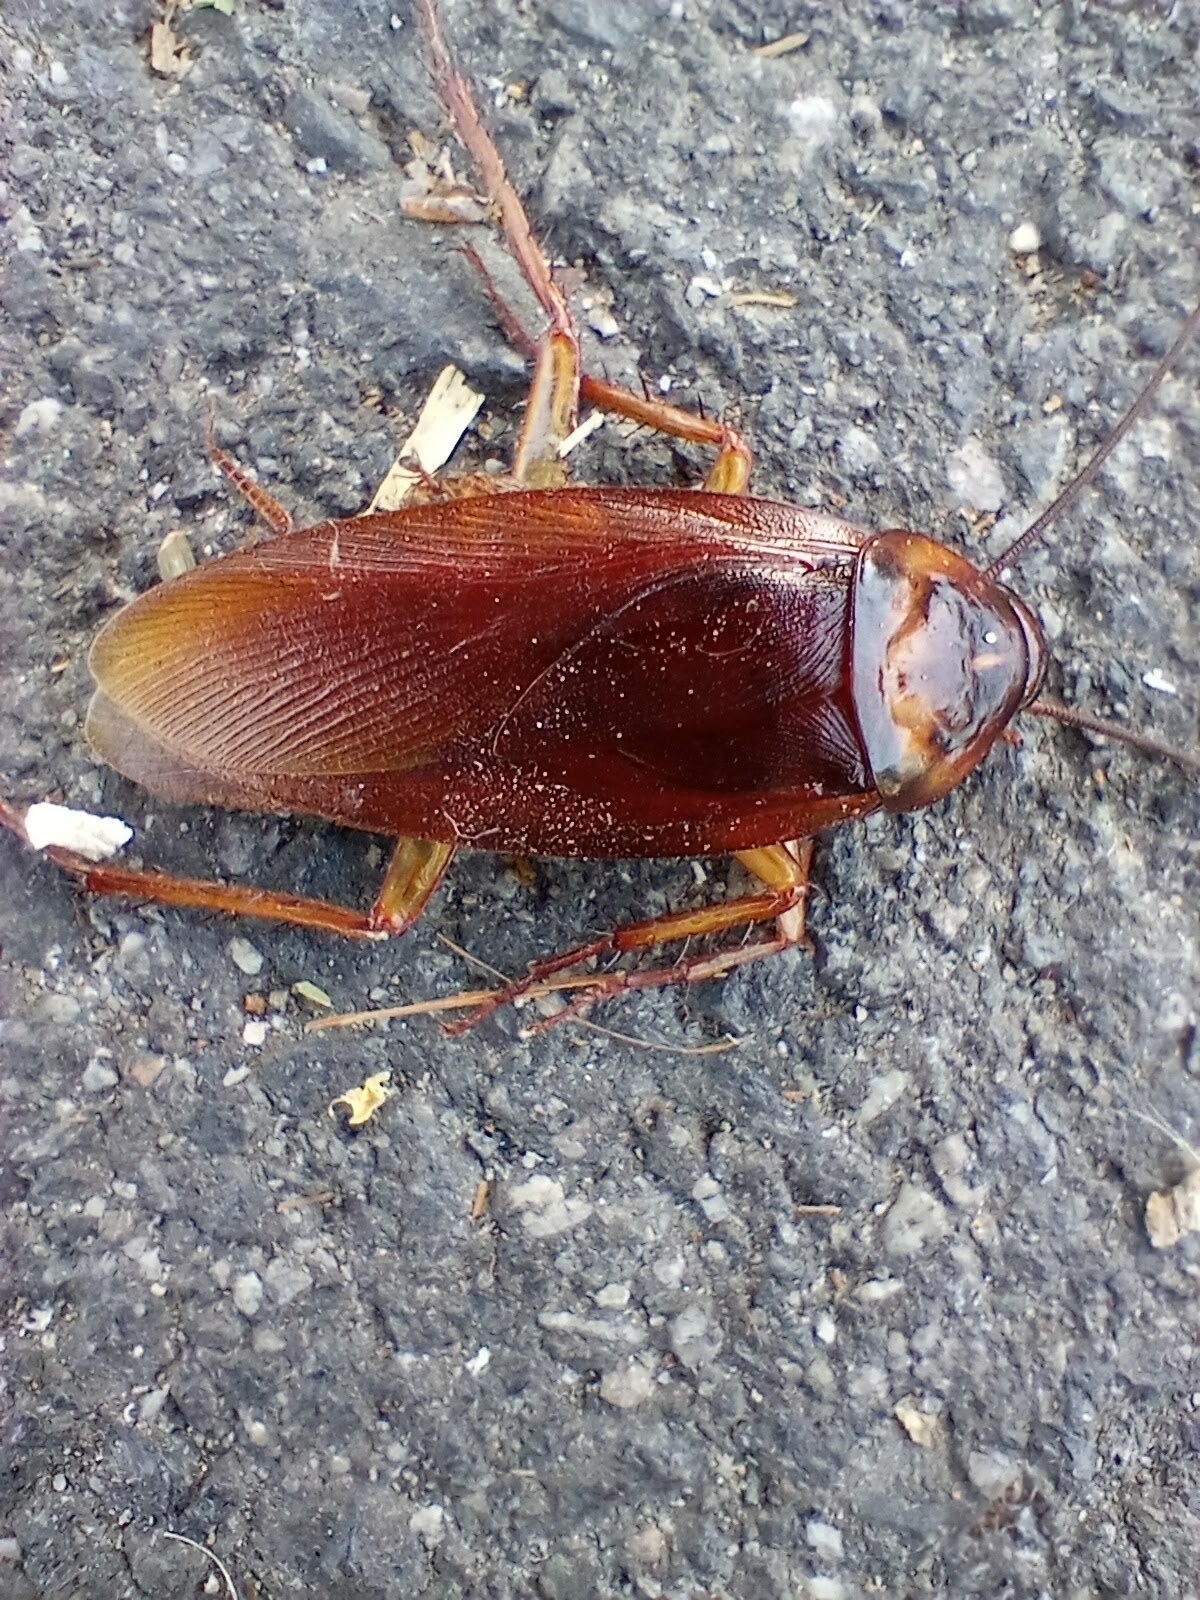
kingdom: Animalia
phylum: Arthropoda
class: Insecta
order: Blattodea
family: Blattidae
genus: Periplaneta
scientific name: Periplaneta americana
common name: American cockroach
